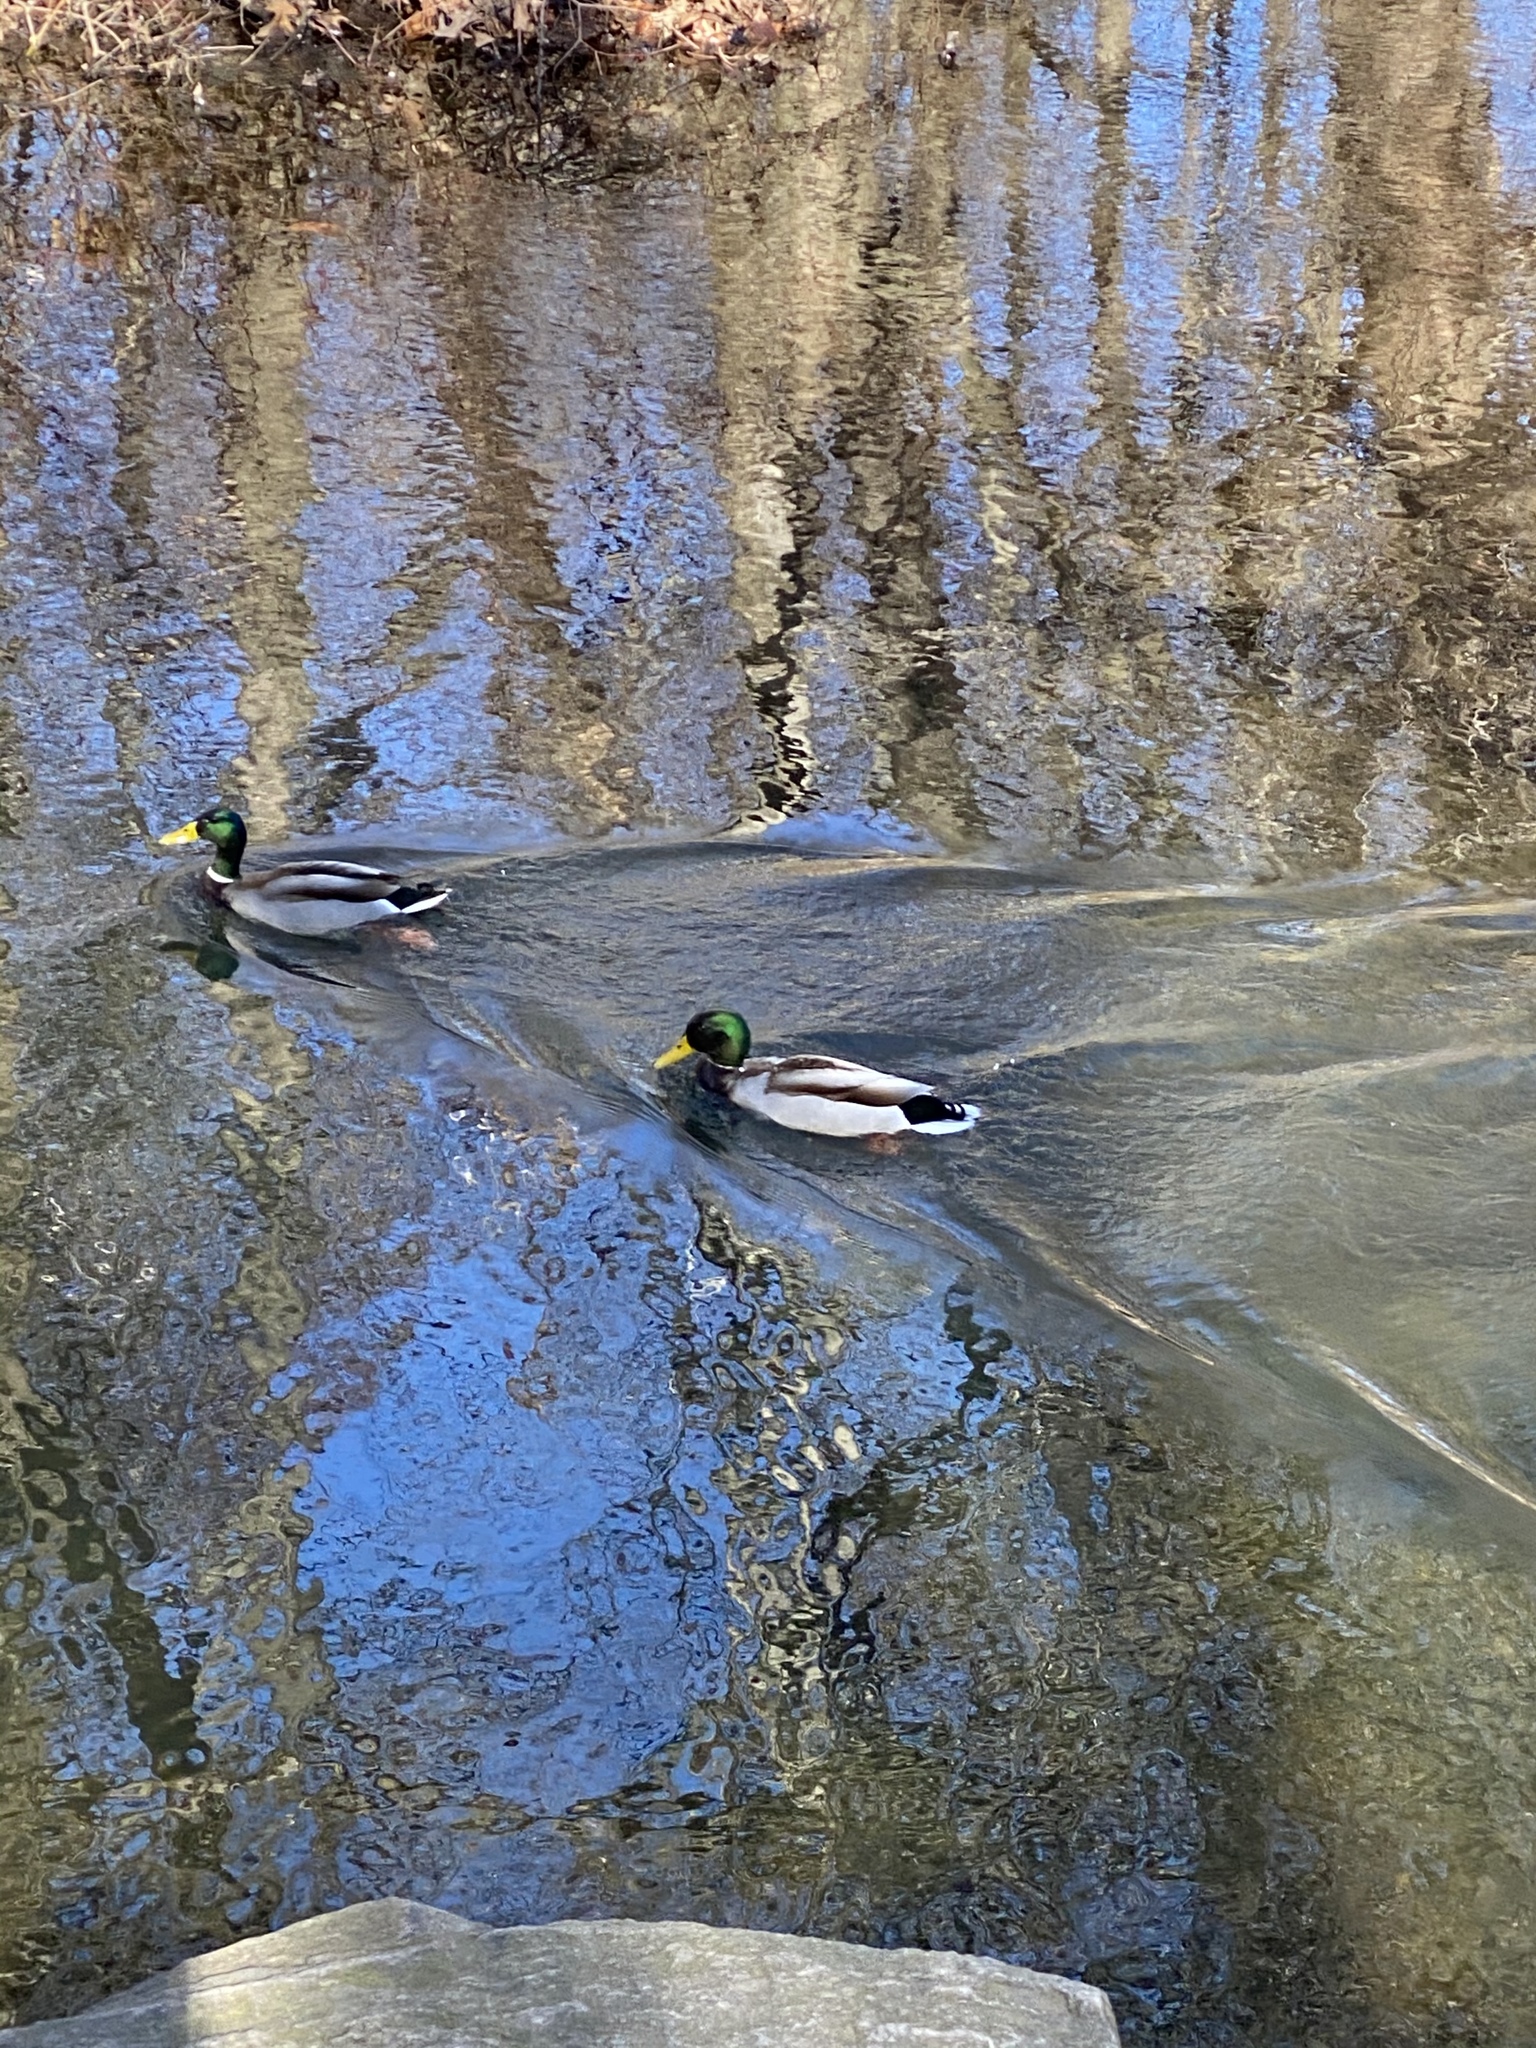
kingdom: Animalia
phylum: Chordata
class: Aves
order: Anseriformes
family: Anatidae
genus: Anas
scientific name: Anas platyrhynchos
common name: Mallard
